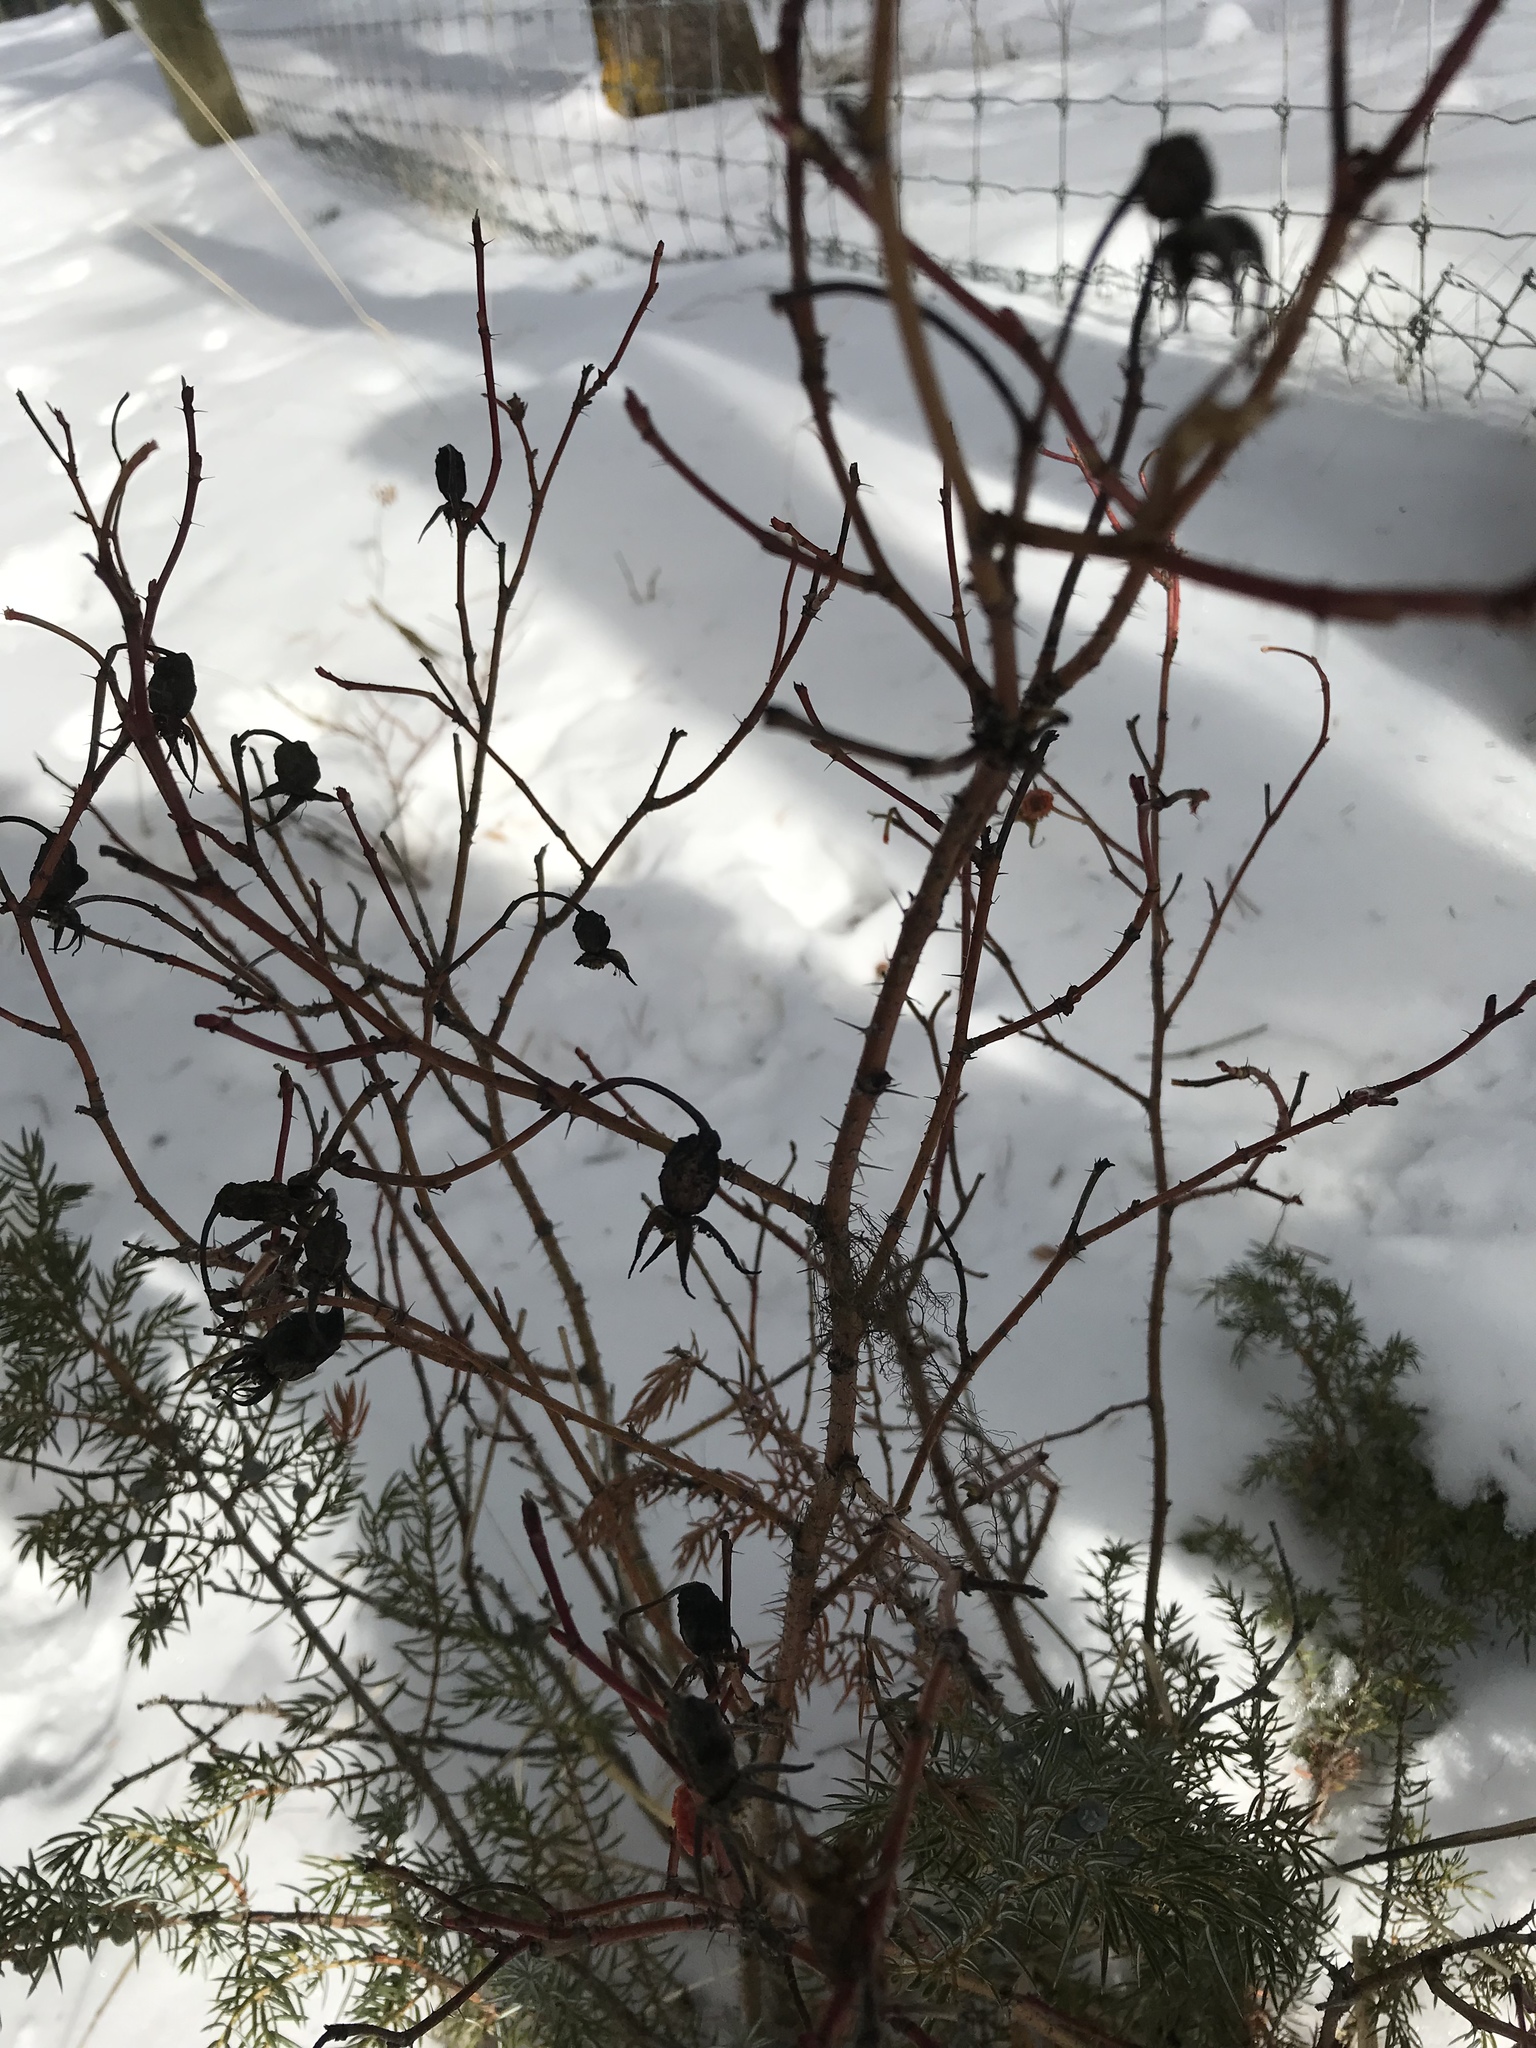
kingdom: Plantae
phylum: Tracheophyta
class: Magnoliopsida
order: Rosales
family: Rosaceae
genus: Rosa
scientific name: Rosa acicularis
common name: Prickly rose
